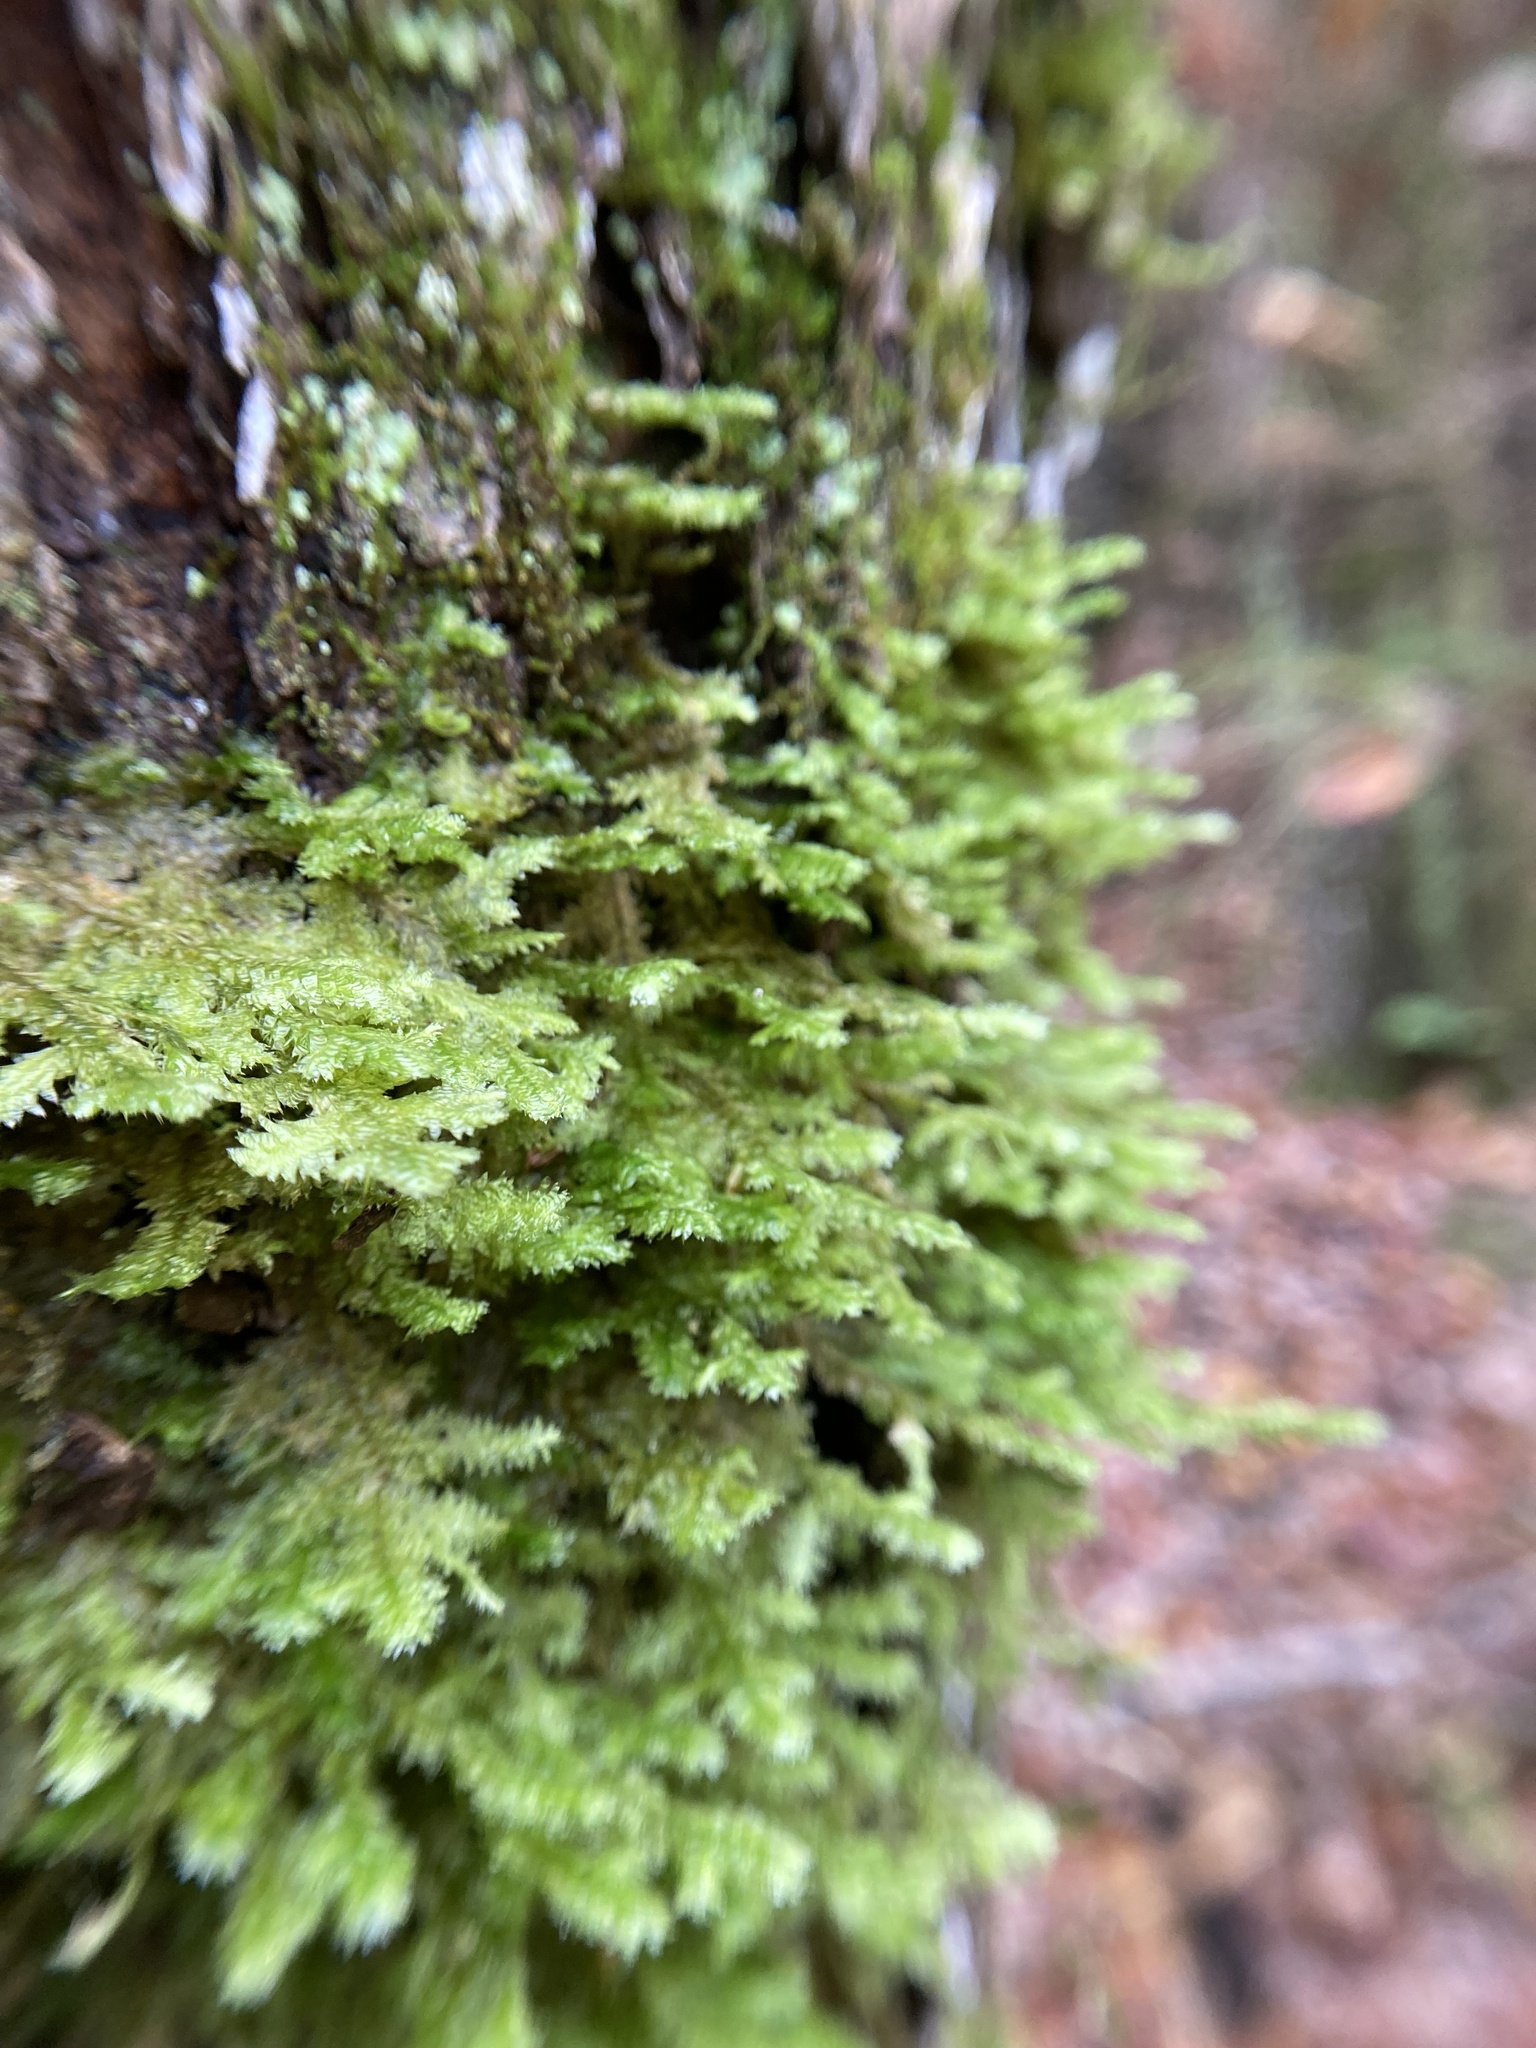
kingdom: Plantae
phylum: Bryophyta
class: Bryopsida
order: Hypnales
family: Neckeraceae
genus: Neckera
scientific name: Neckera pennata
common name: Feathery neckera
